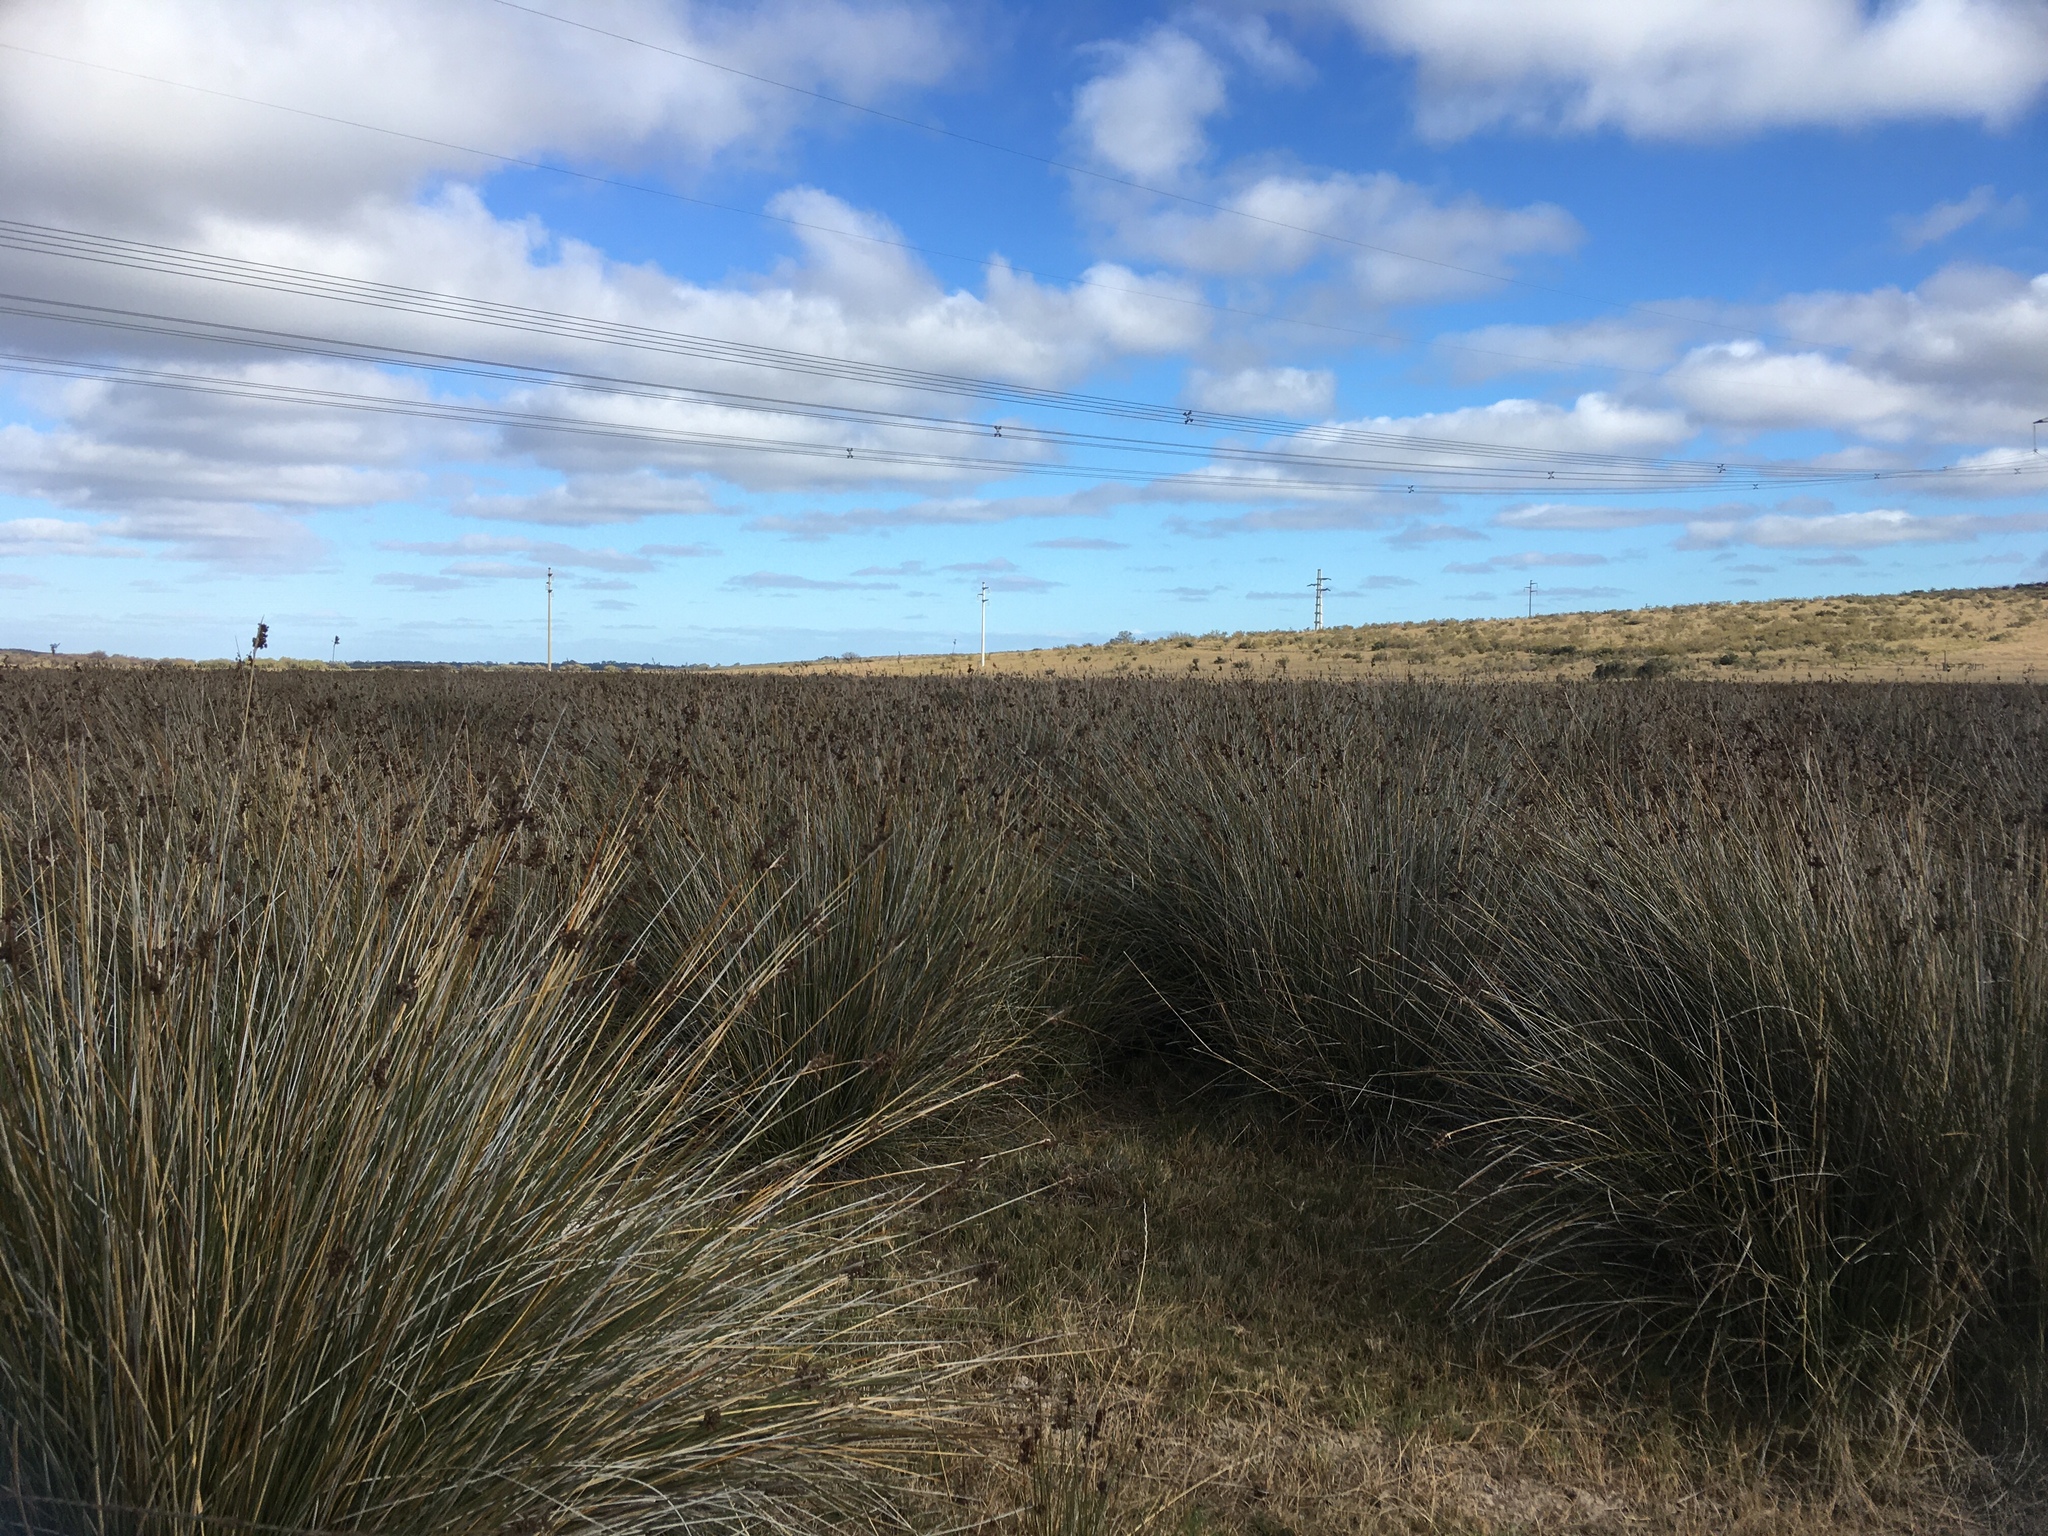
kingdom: Plantae
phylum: Tracheophyta
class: Liliopsida
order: Poales
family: Juncaceae
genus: Juncus
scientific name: Juncus acutus
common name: Sharp rush
